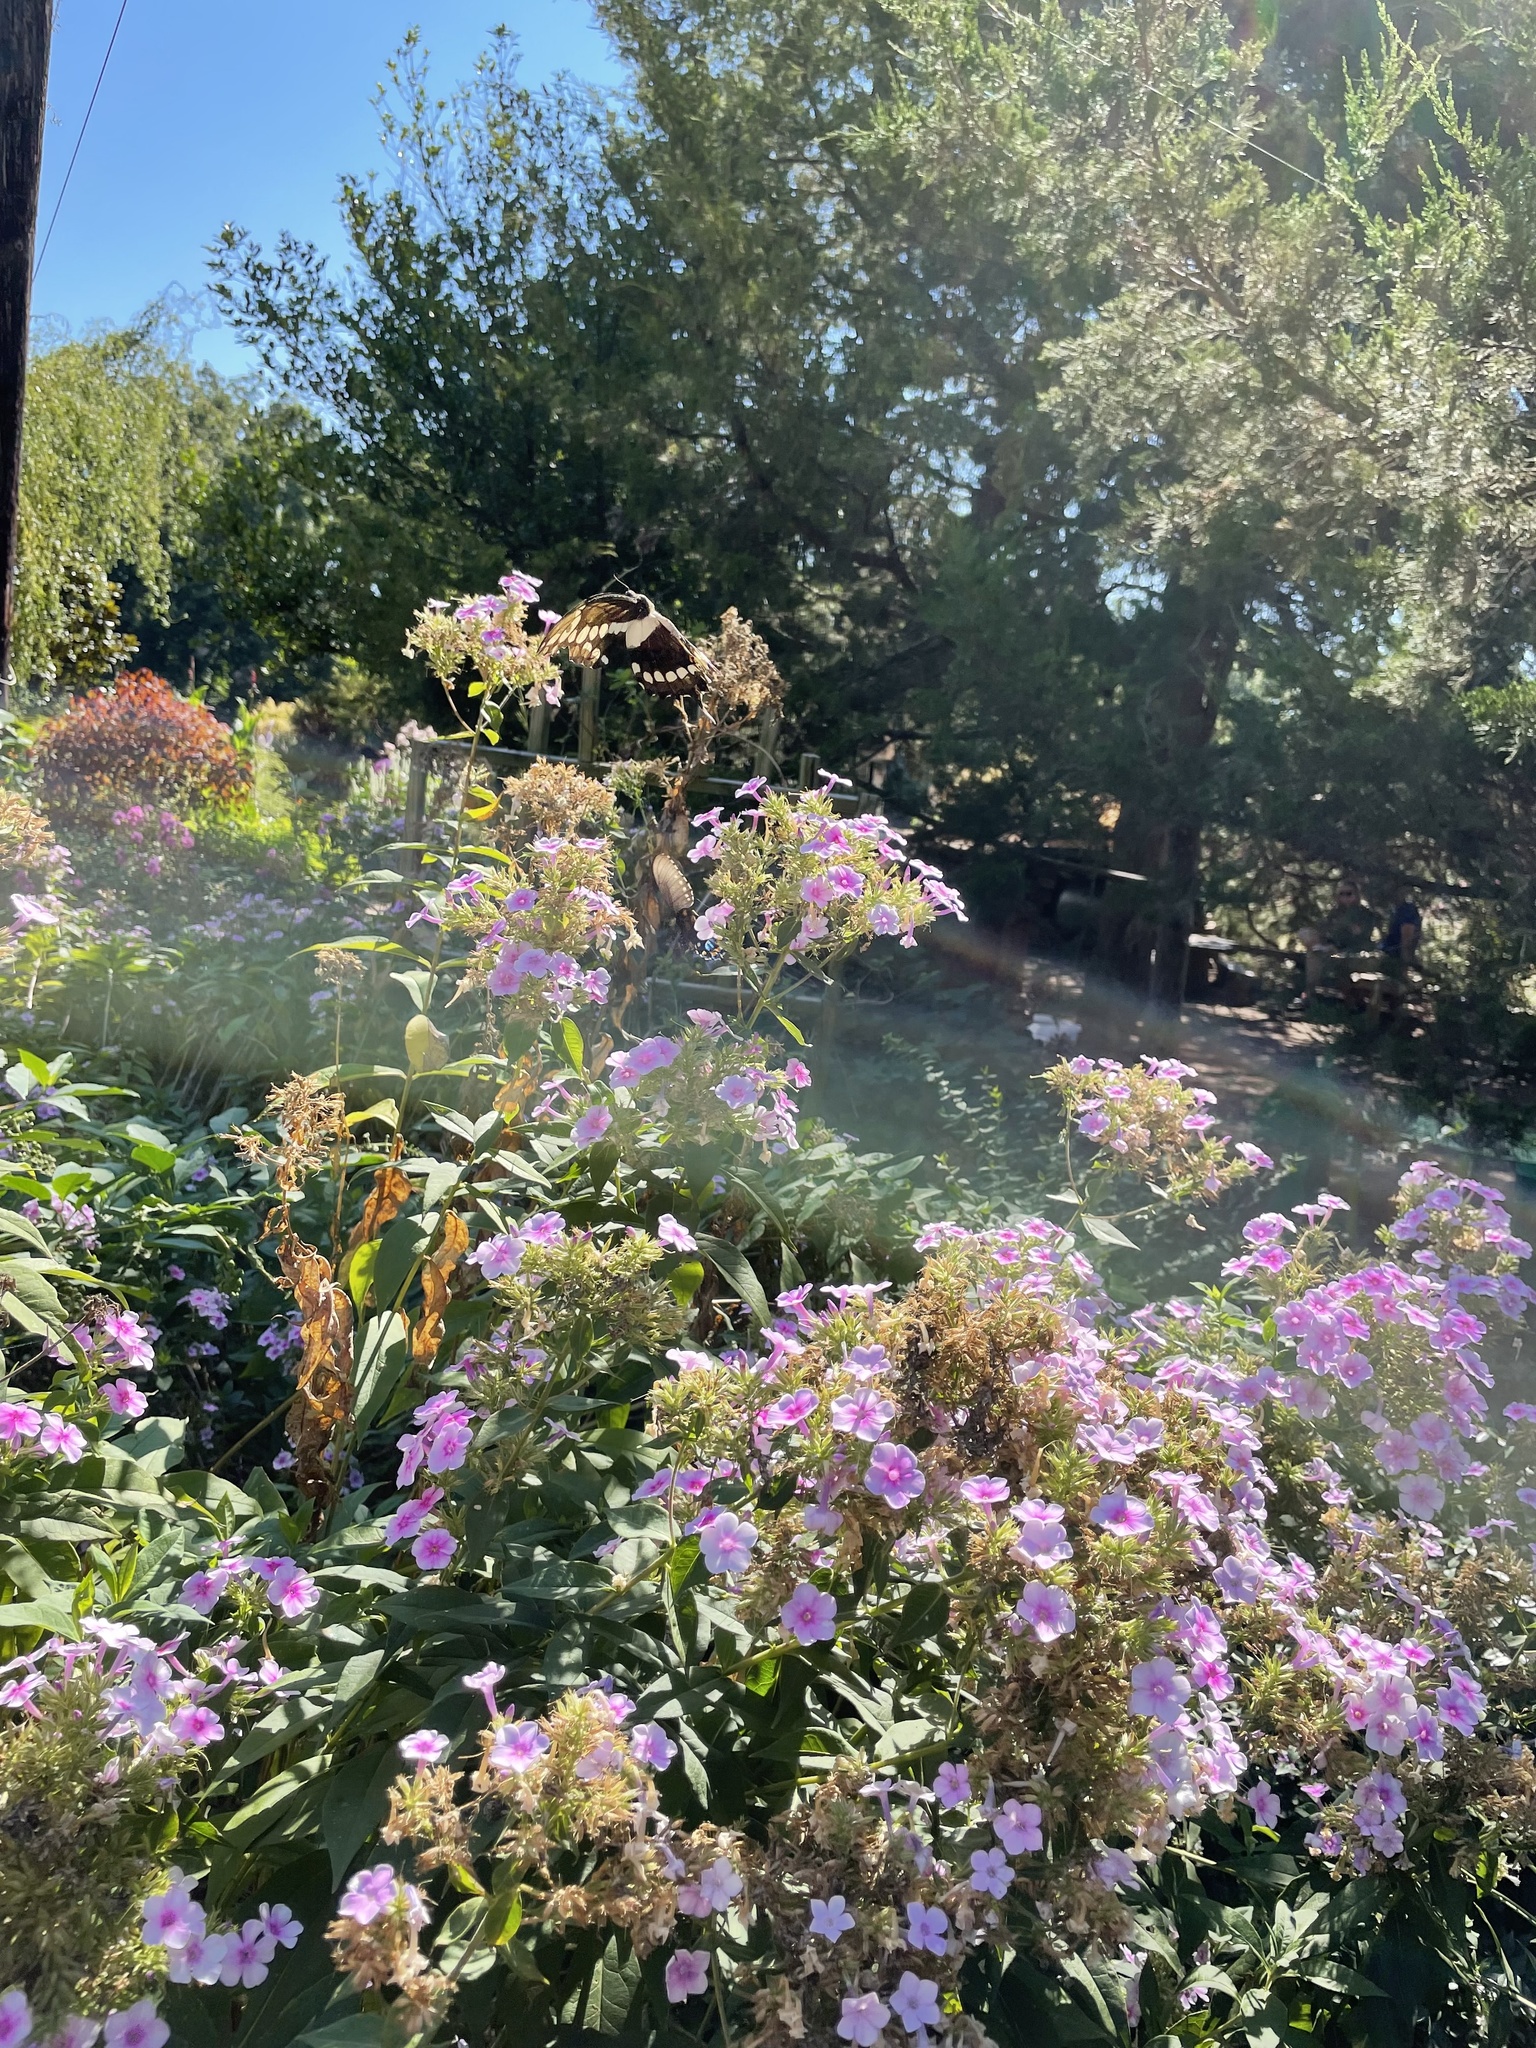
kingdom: Animalia
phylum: Arthropoda
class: Insecta
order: Lepidoptera
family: Papilionidae
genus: Papilio
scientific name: Papilio cresphontes
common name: Giant swallowtail
